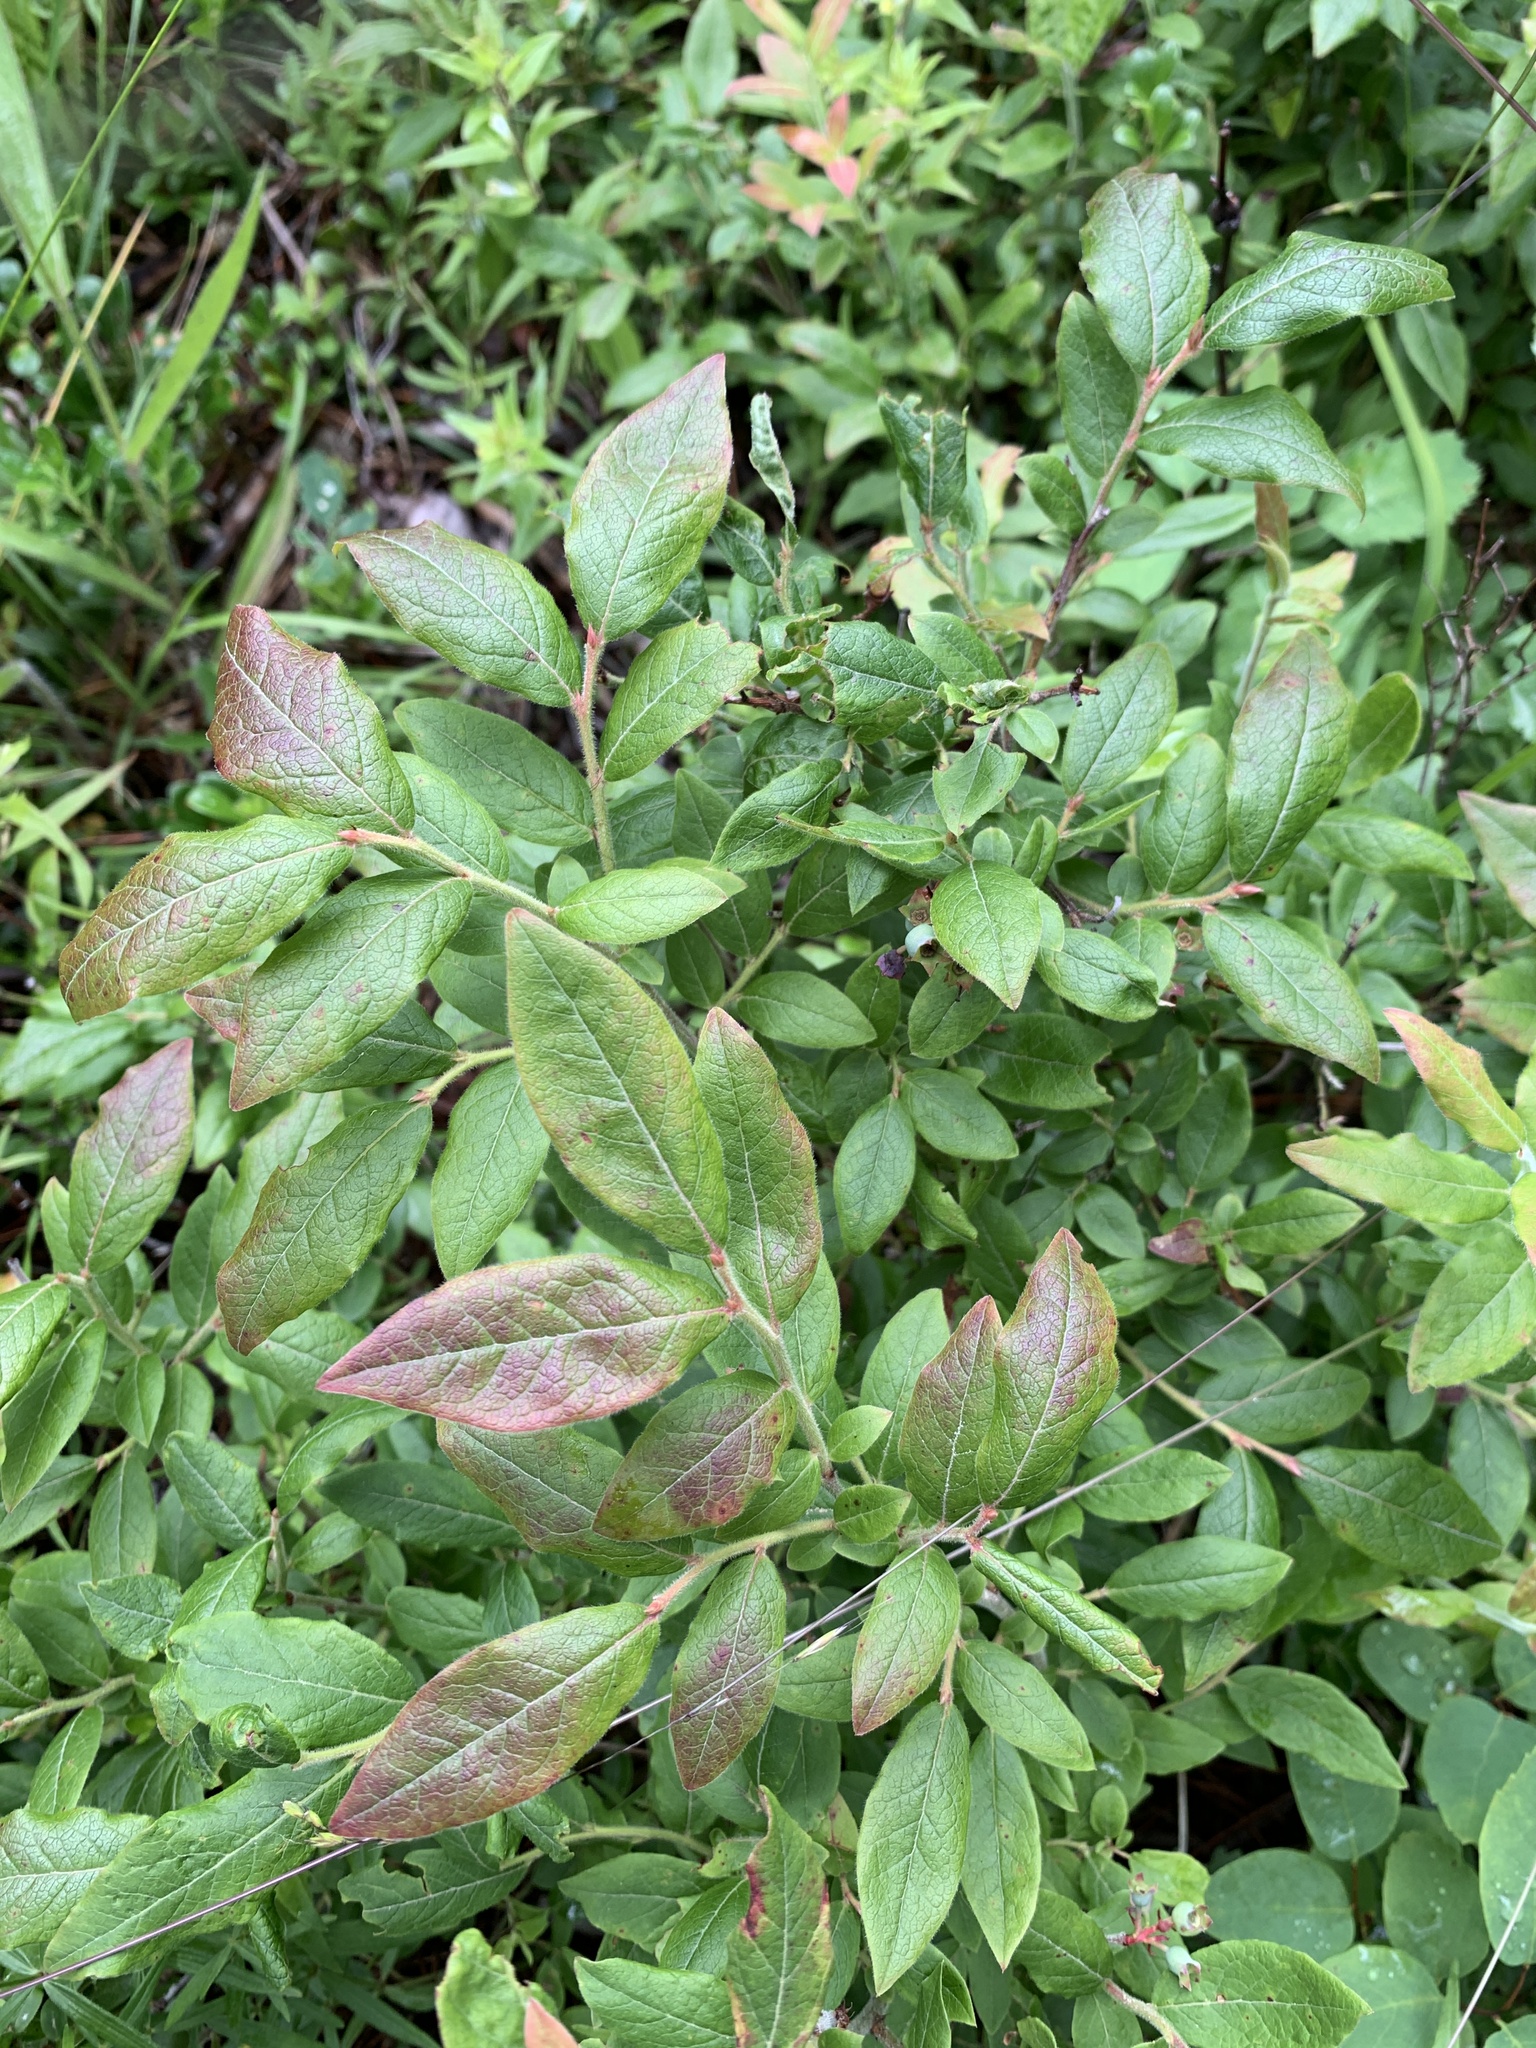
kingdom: Plantae
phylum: Tracheophyta
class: Magnoliopsida
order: Ericales
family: Ericaceae
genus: Vaccinium
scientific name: Vaccinium myrtilloides
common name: Canada blueberry
